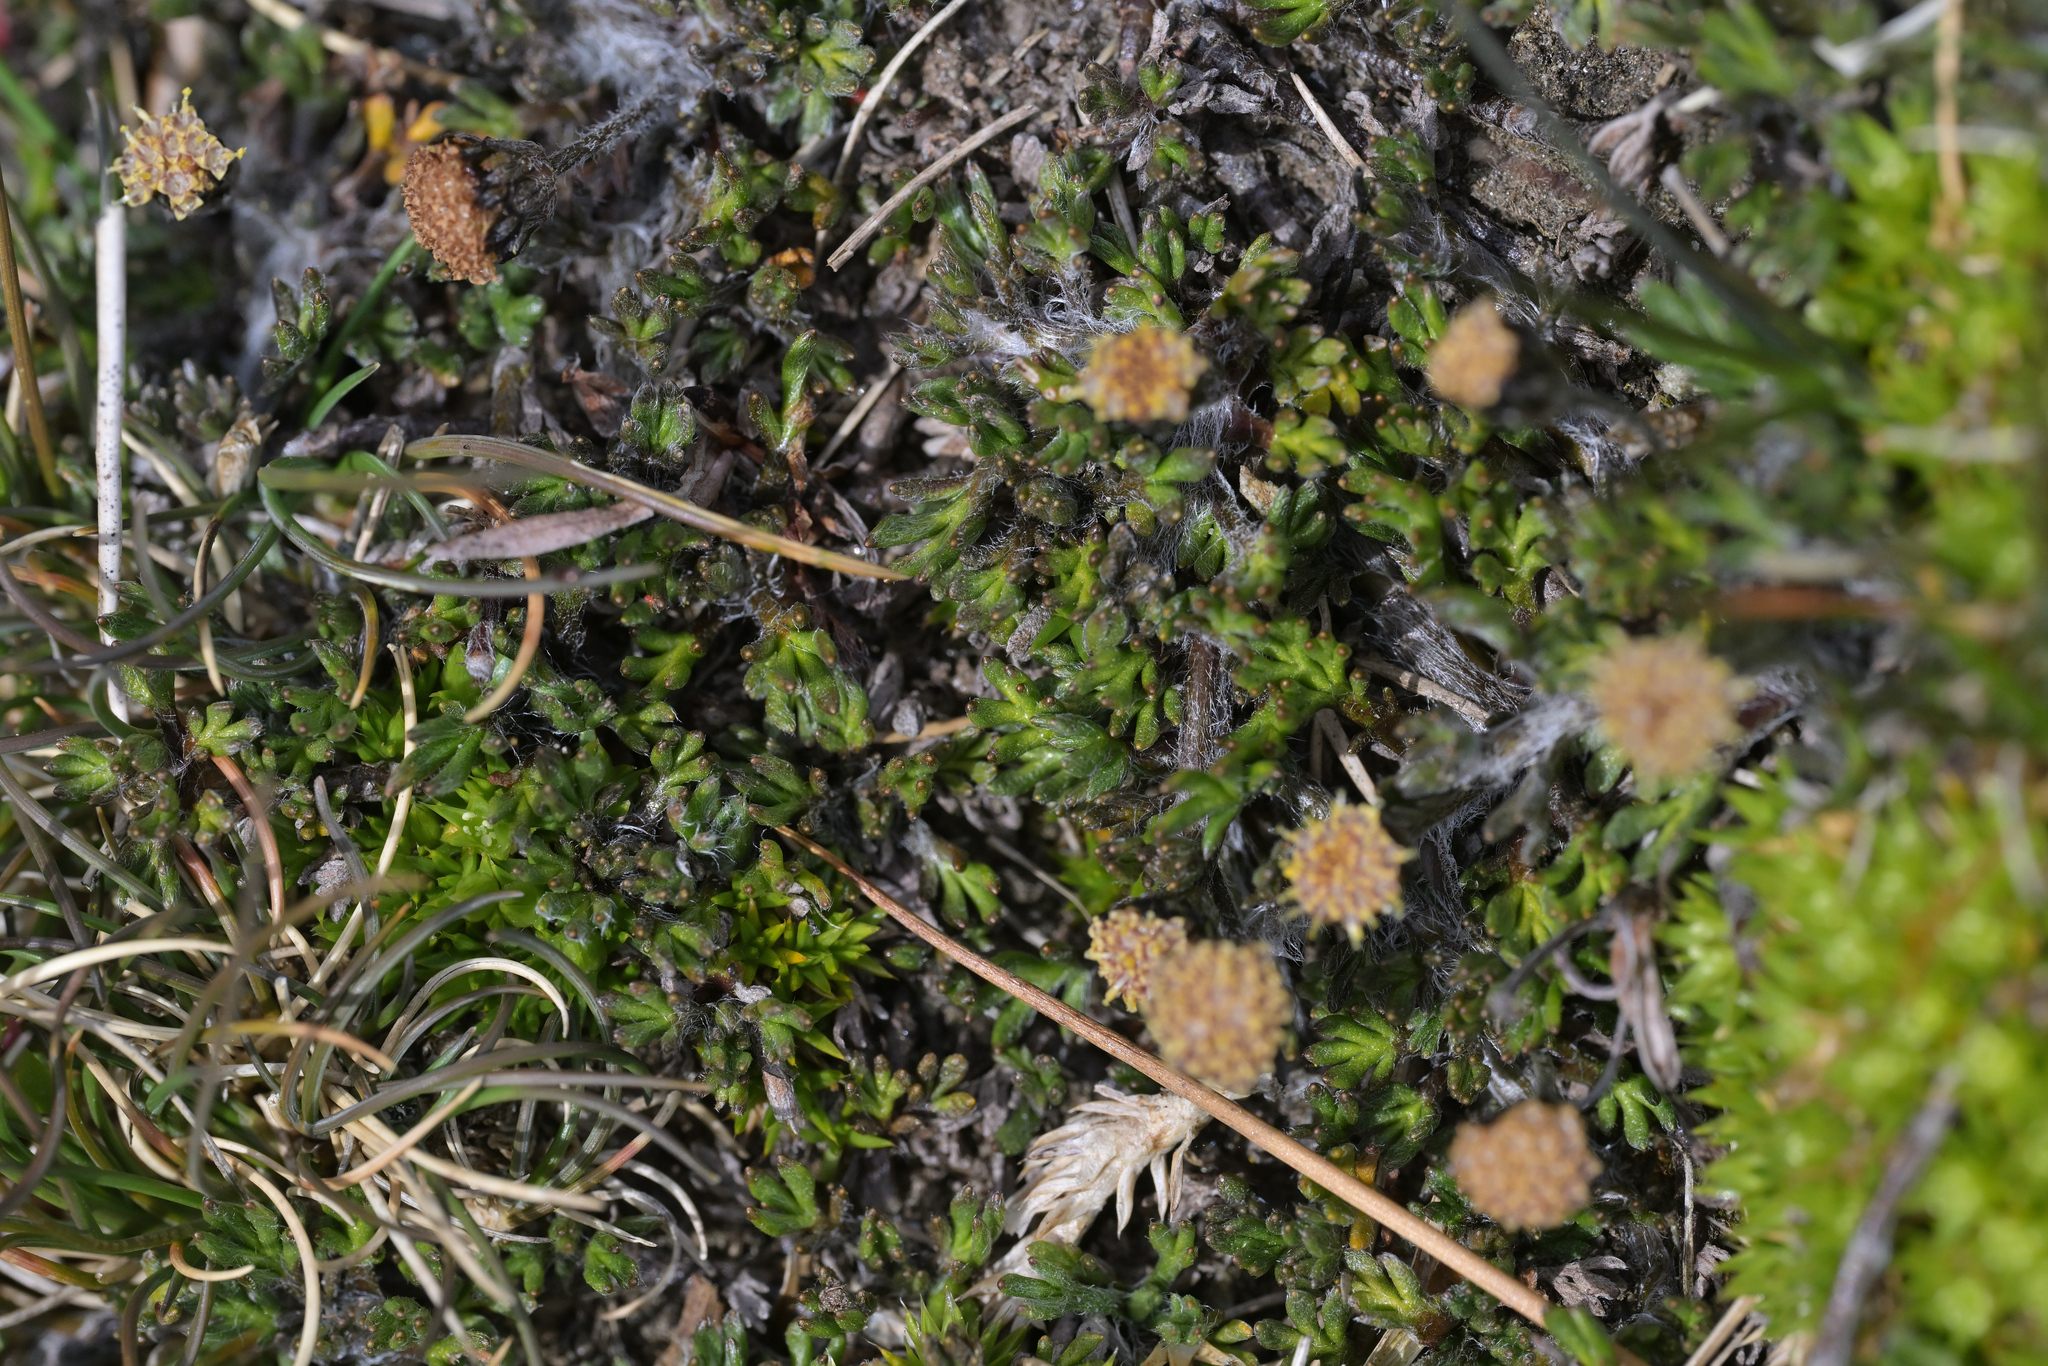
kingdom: Plantae
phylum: Tracheophyta
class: Magnoliopsida
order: Asterales
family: Asteraceae
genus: Leptinella
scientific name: Leptinella pectinata
